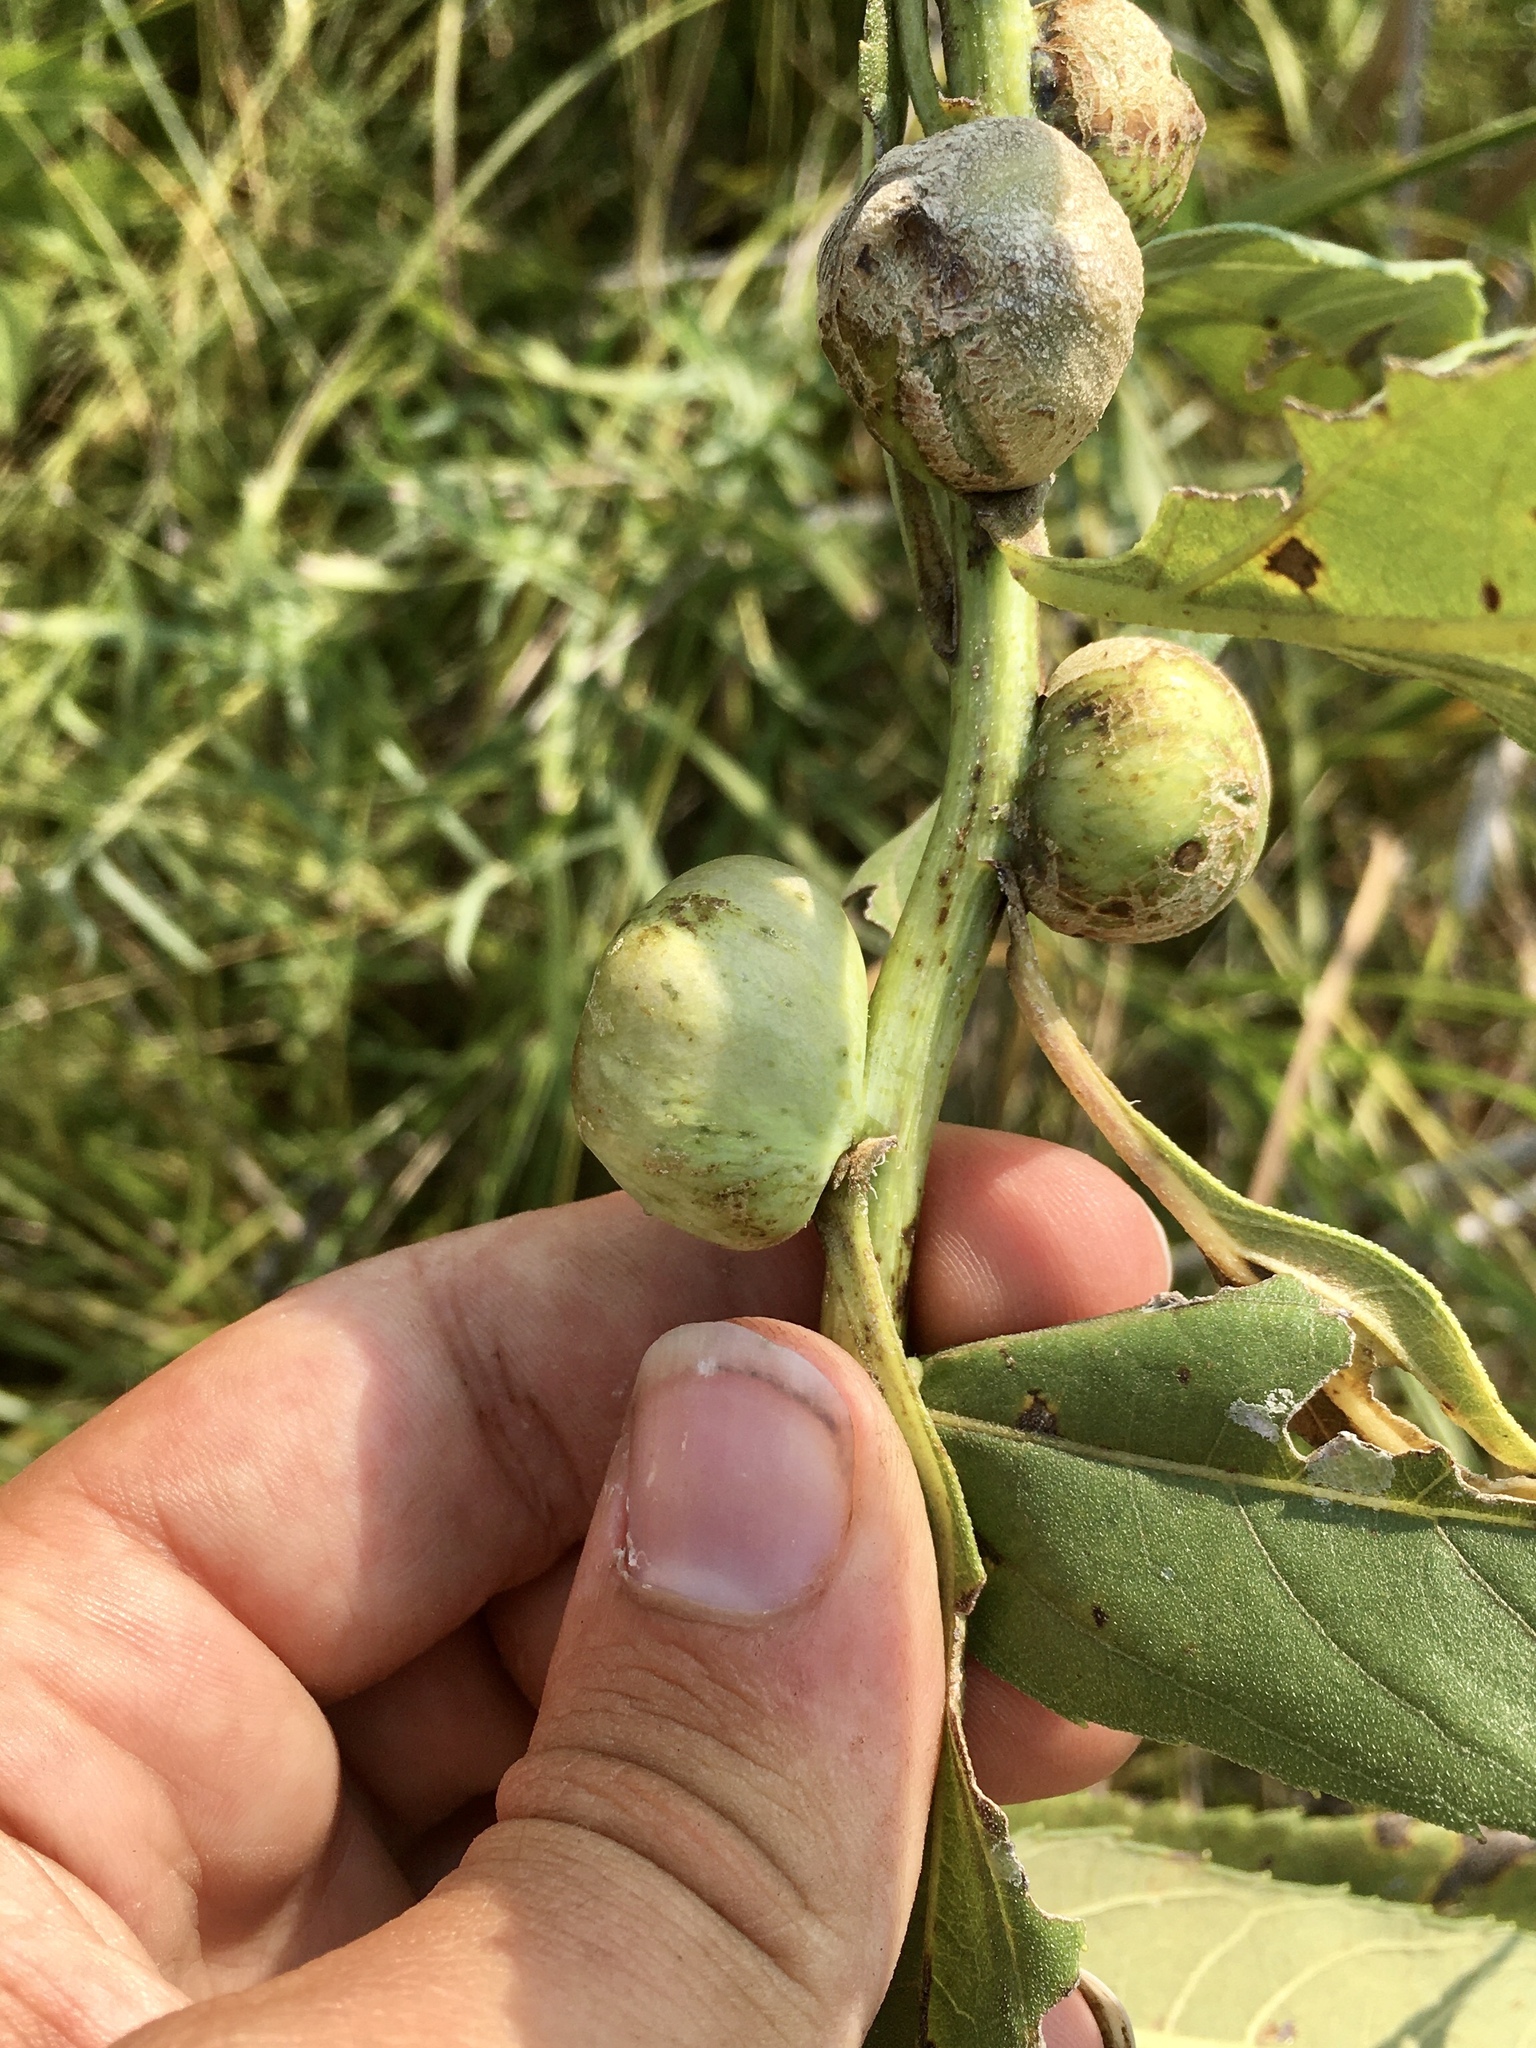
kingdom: Animalia
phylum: Arthropoda
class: Insecta
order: Diptera
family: Cecidomyiidae
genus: Asphondylia
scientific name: Asphondylia helianthiglobulus
